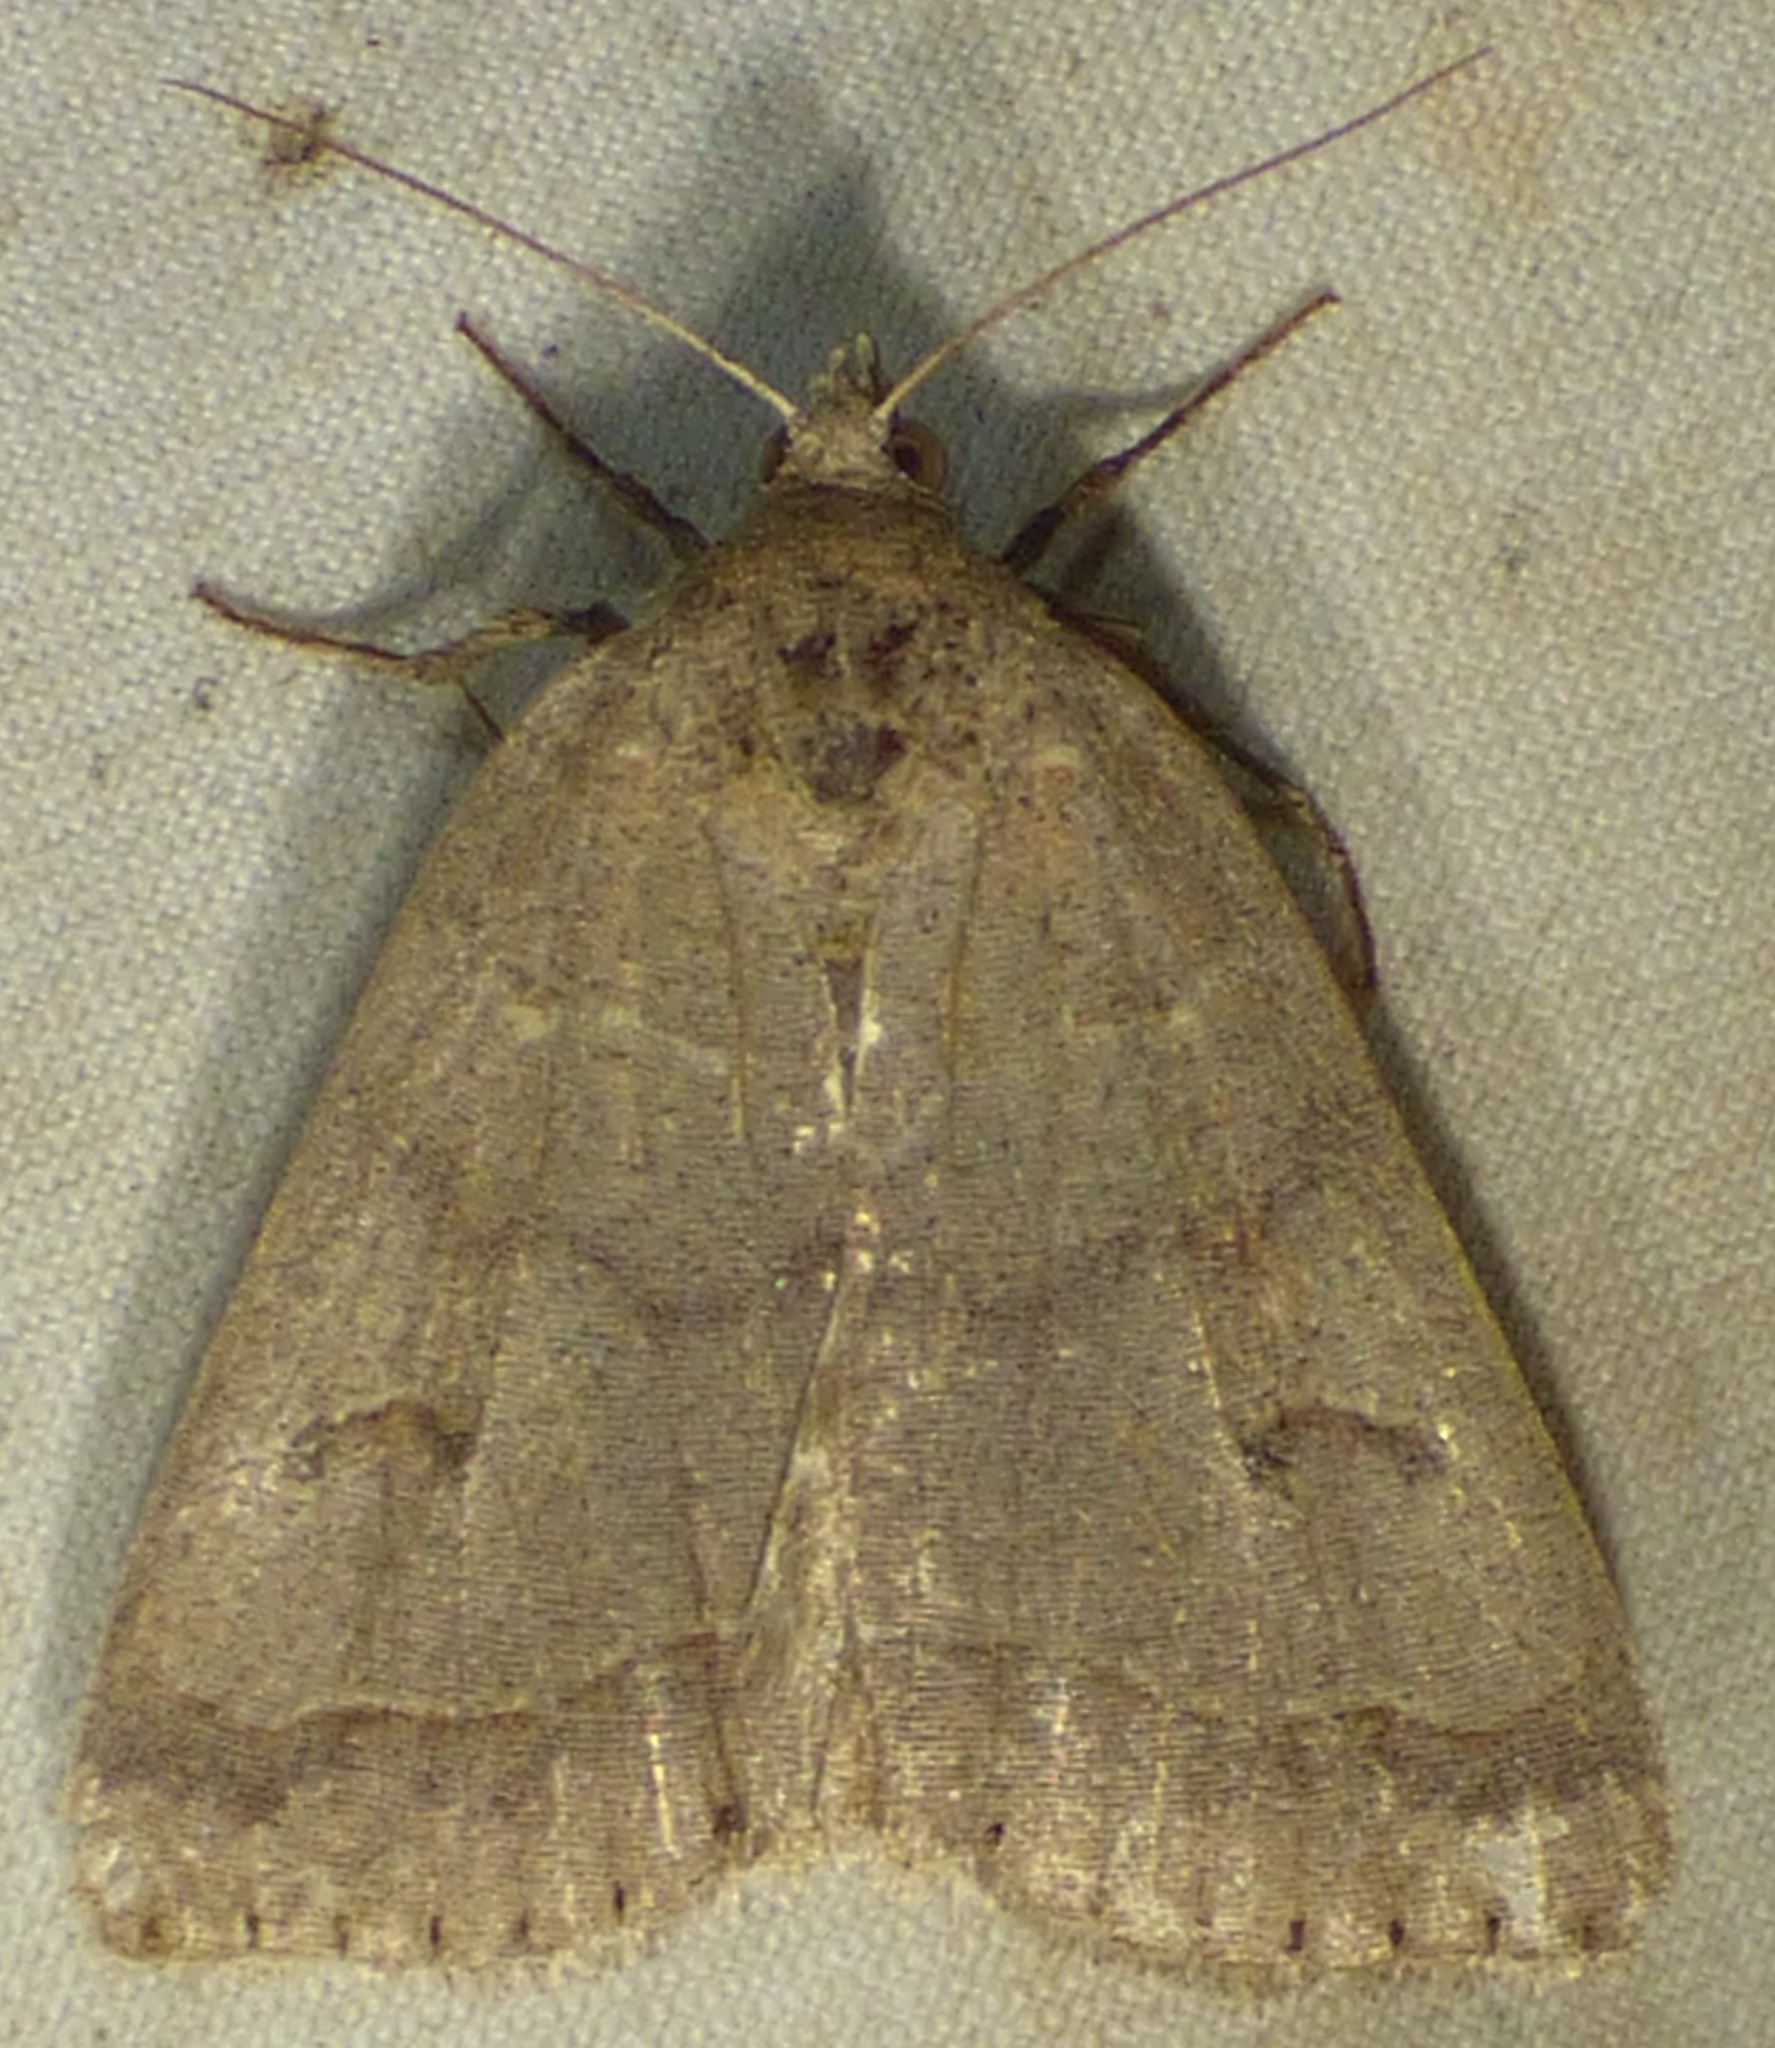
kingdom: Animalia
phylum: Arthropoda
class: Insecta
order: Lepidoptera
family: Erebidae
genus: Phoberia
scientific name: Phoberia atomaris
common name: Common oak moth
